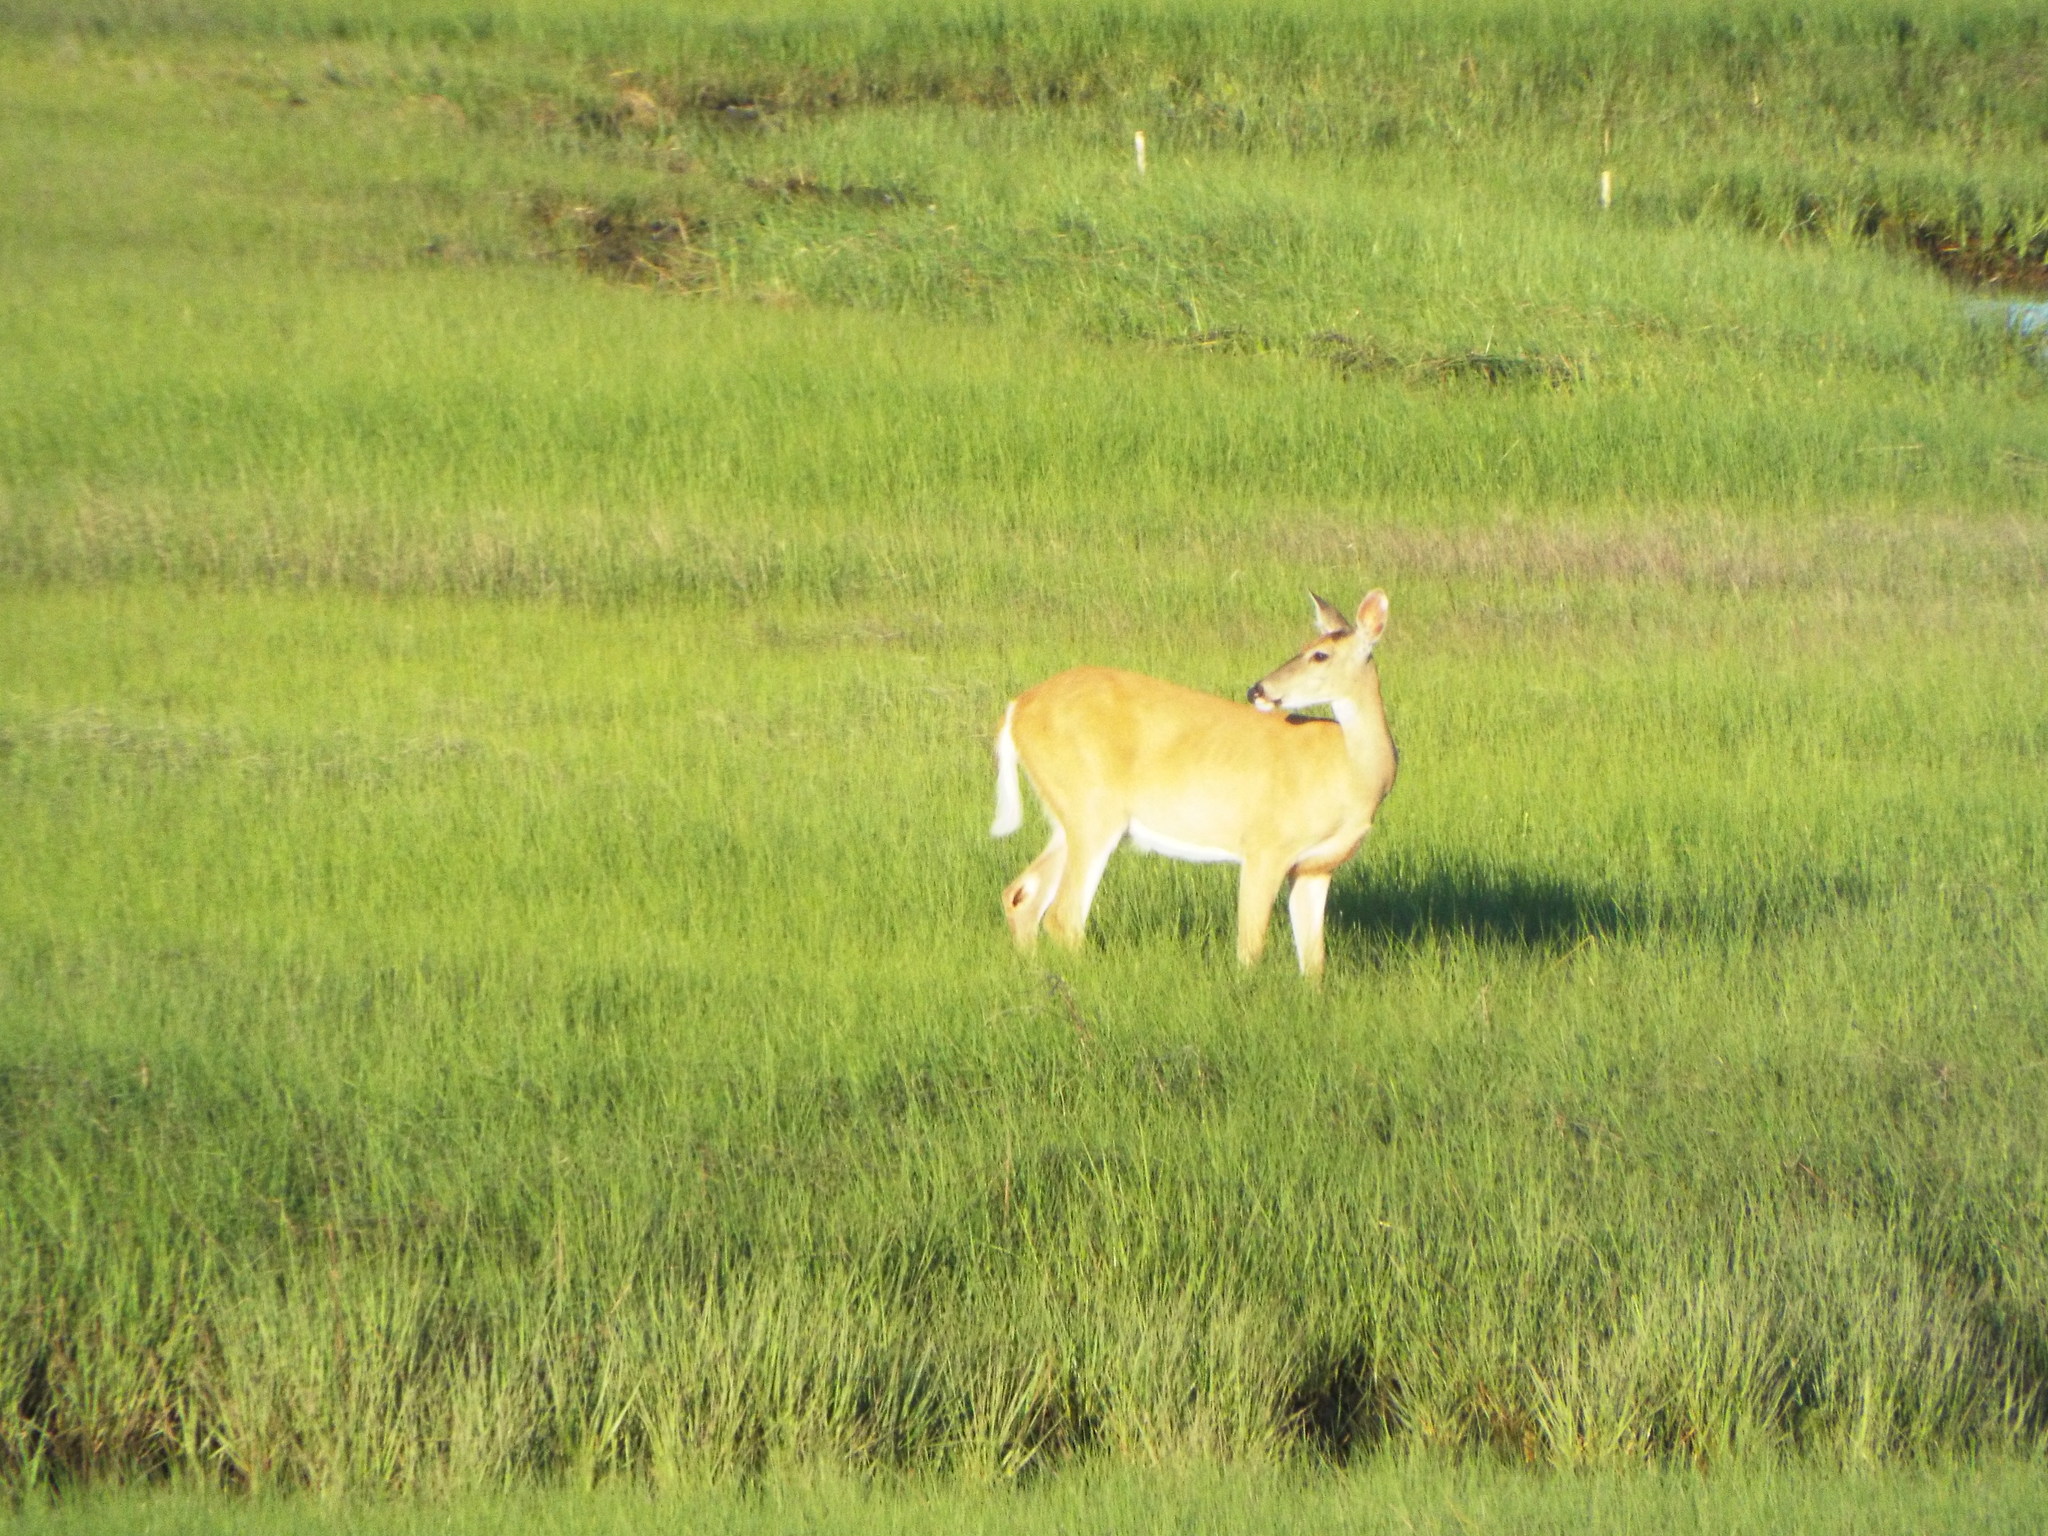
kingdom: Animalia
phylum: Chordata
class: Mammalia
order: Artiodactyla
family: Cervidae
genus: Odocoileus
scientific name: Odocoileus virginianus
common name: White-tailed deer
